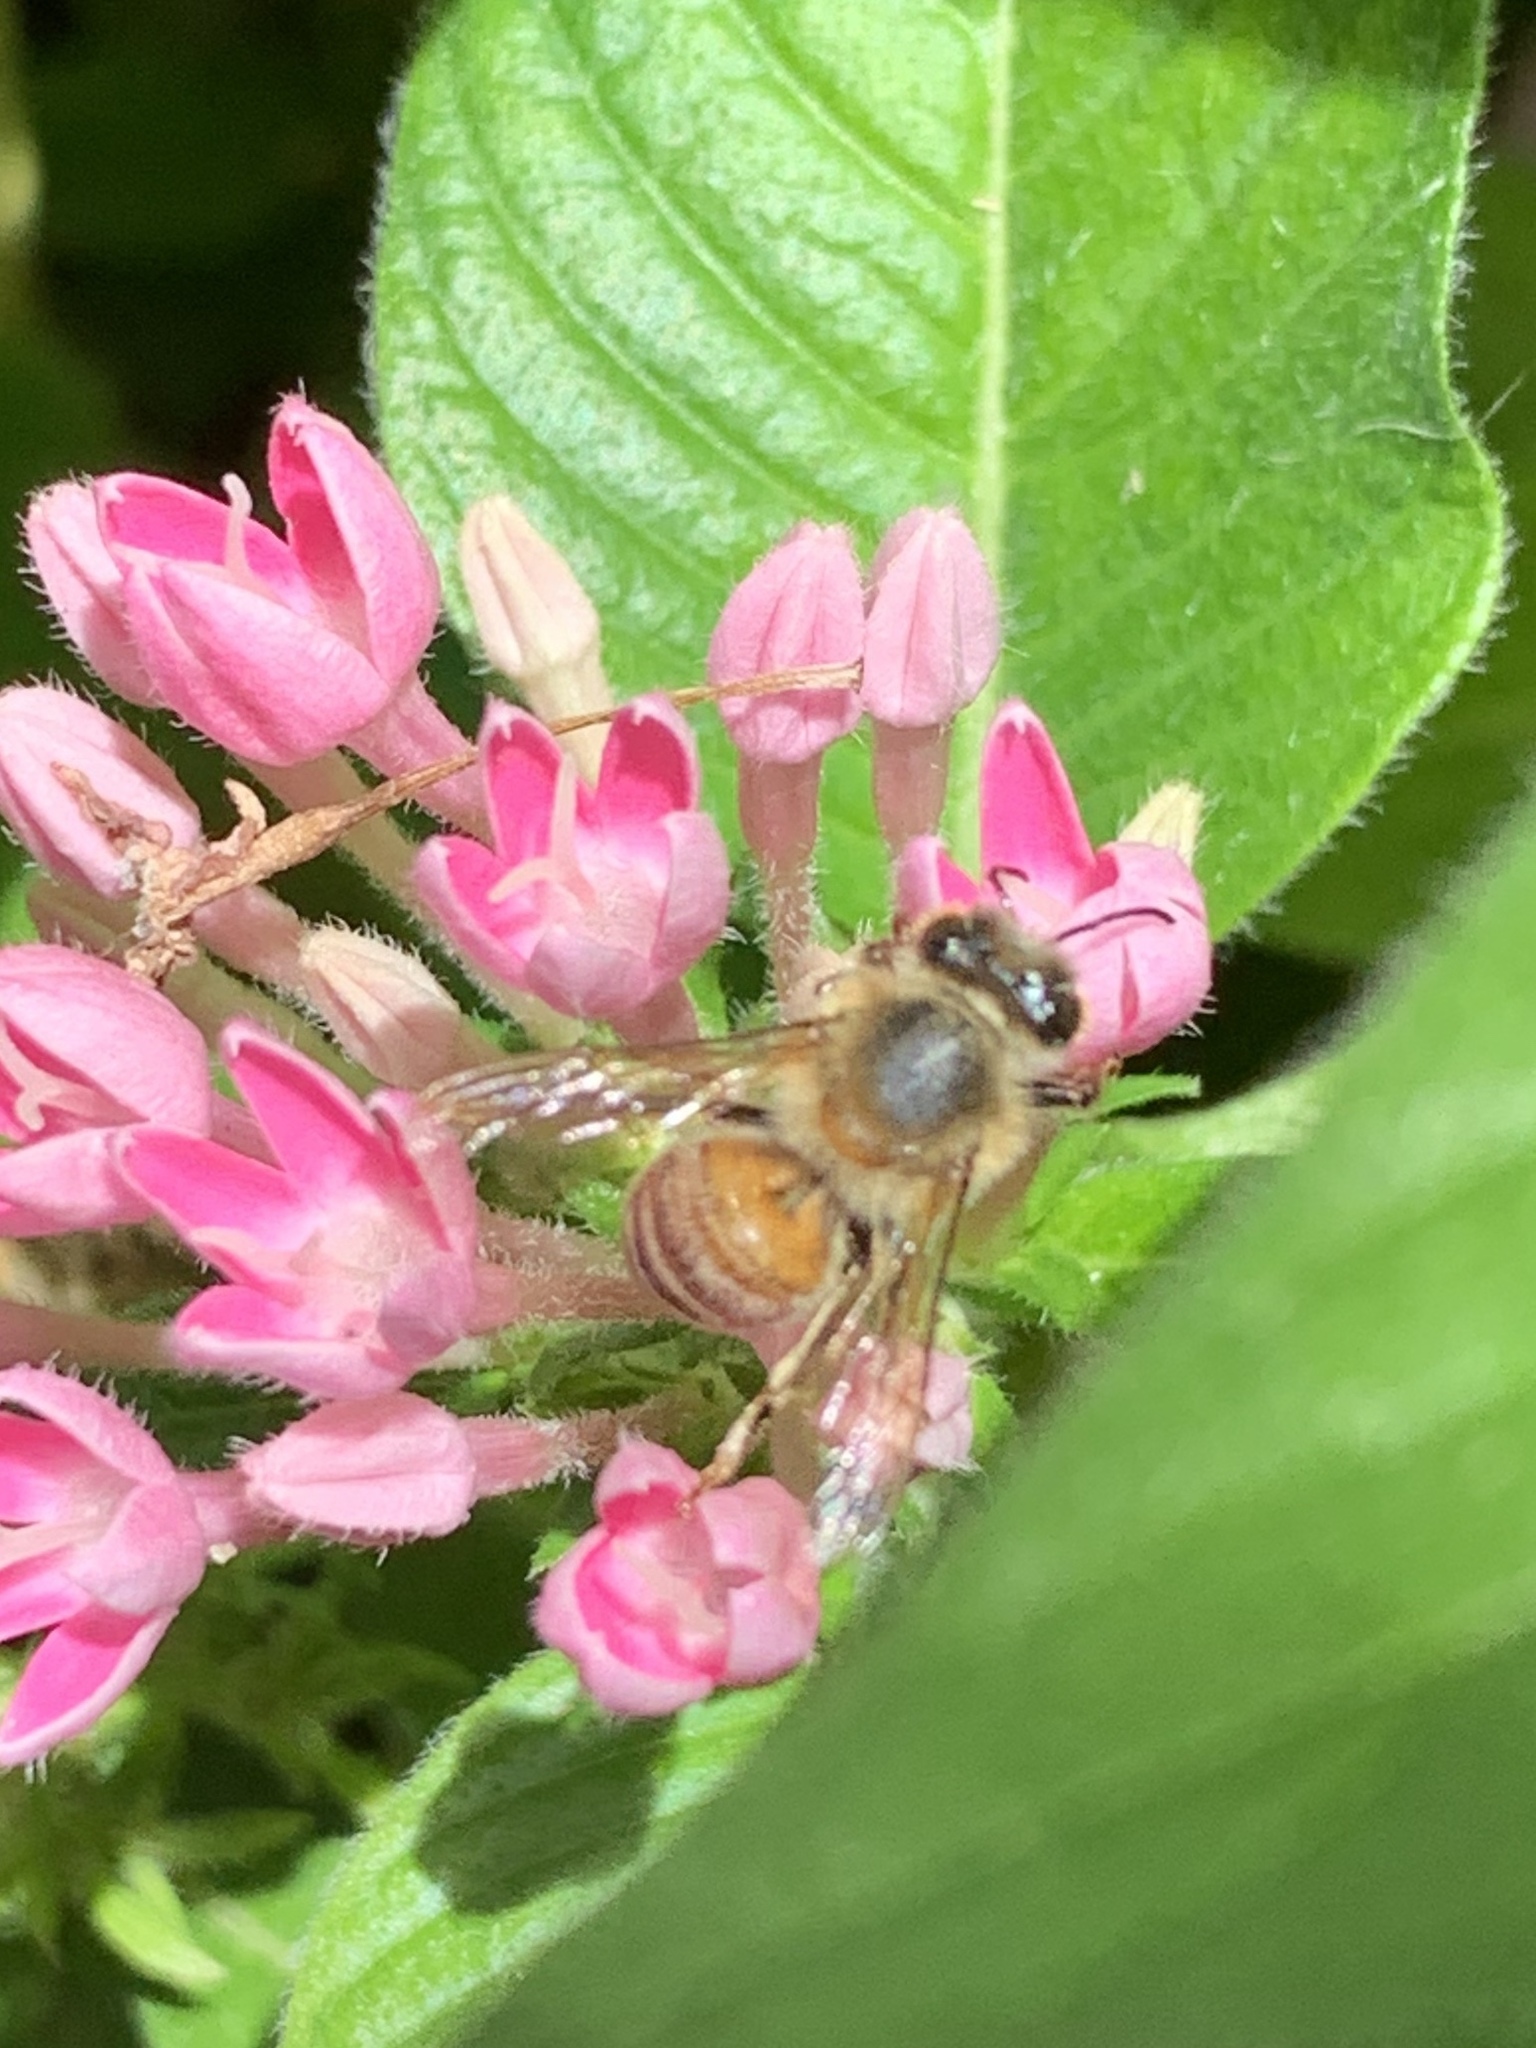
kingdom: Animalia
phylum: Arthropoda
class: Insecta
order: Hymenoptera
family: Apidae
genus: Apis
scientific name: Apis mellifera
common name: Honey bee
